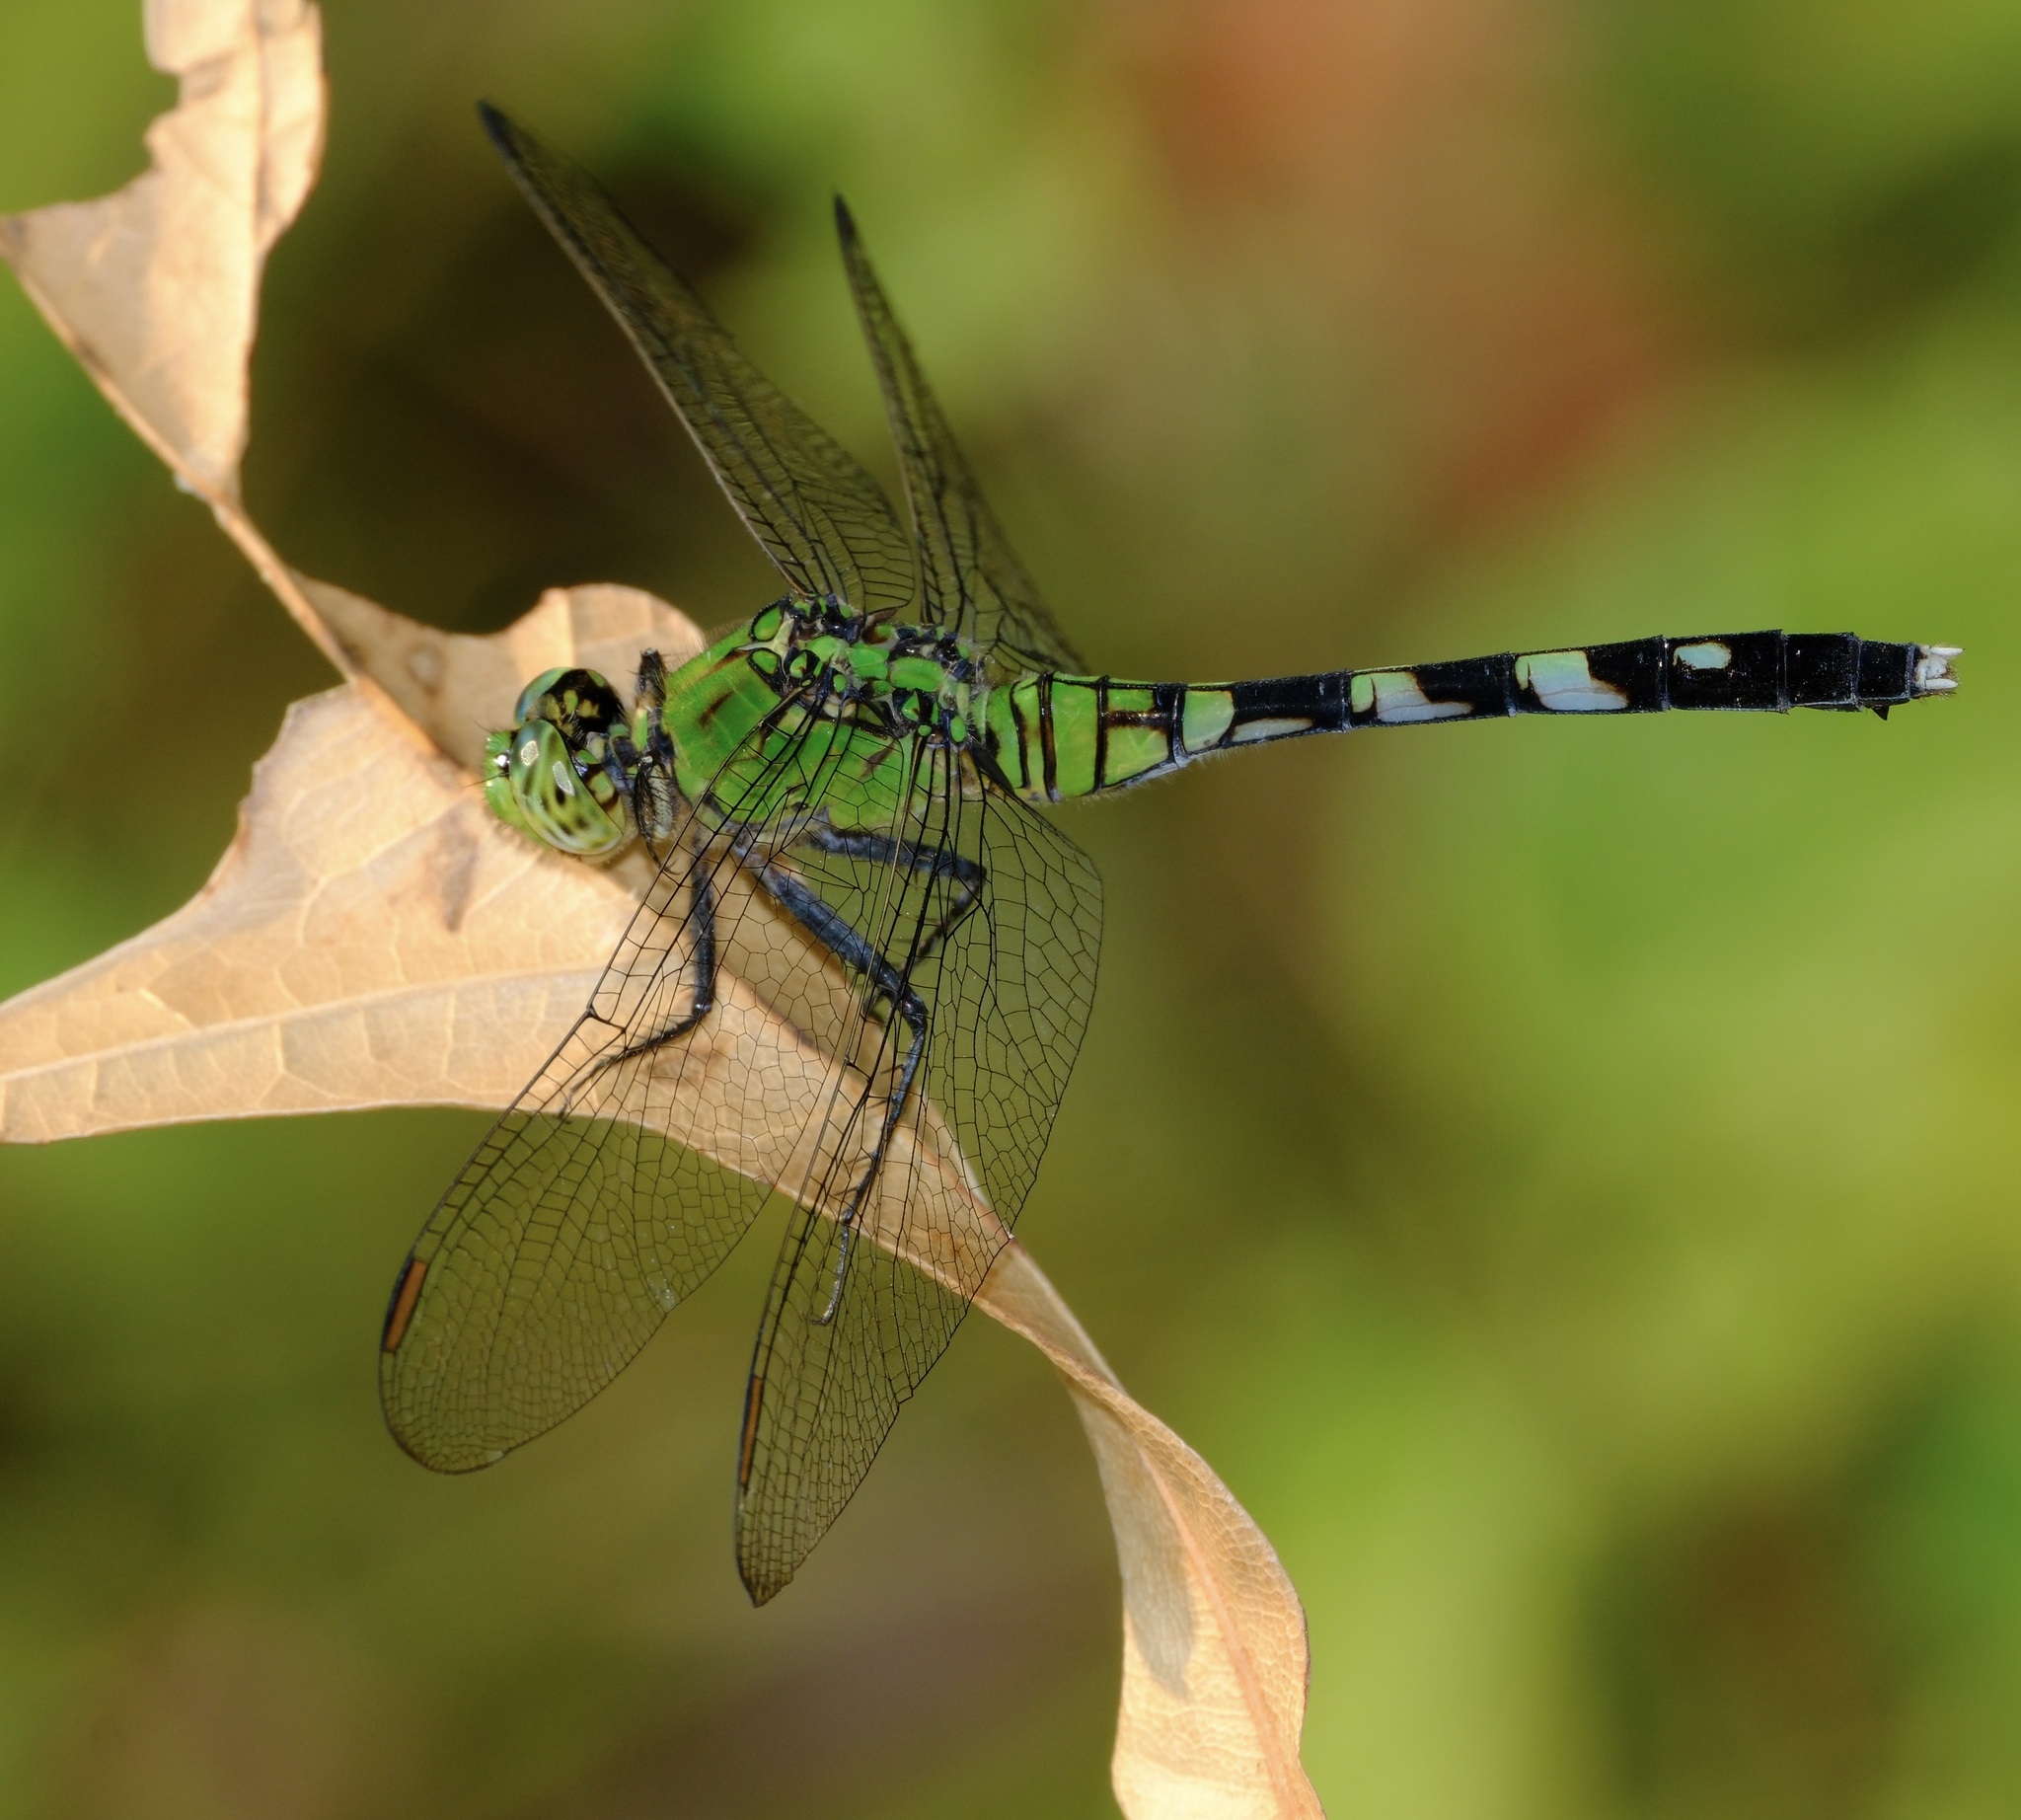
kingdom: Animalia
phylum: Arthropoda
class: Insecta
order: Odonata
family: Libellulidae
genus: Erythemis
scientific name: Erythemis simplicicollis
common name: Eastern pondhawk
